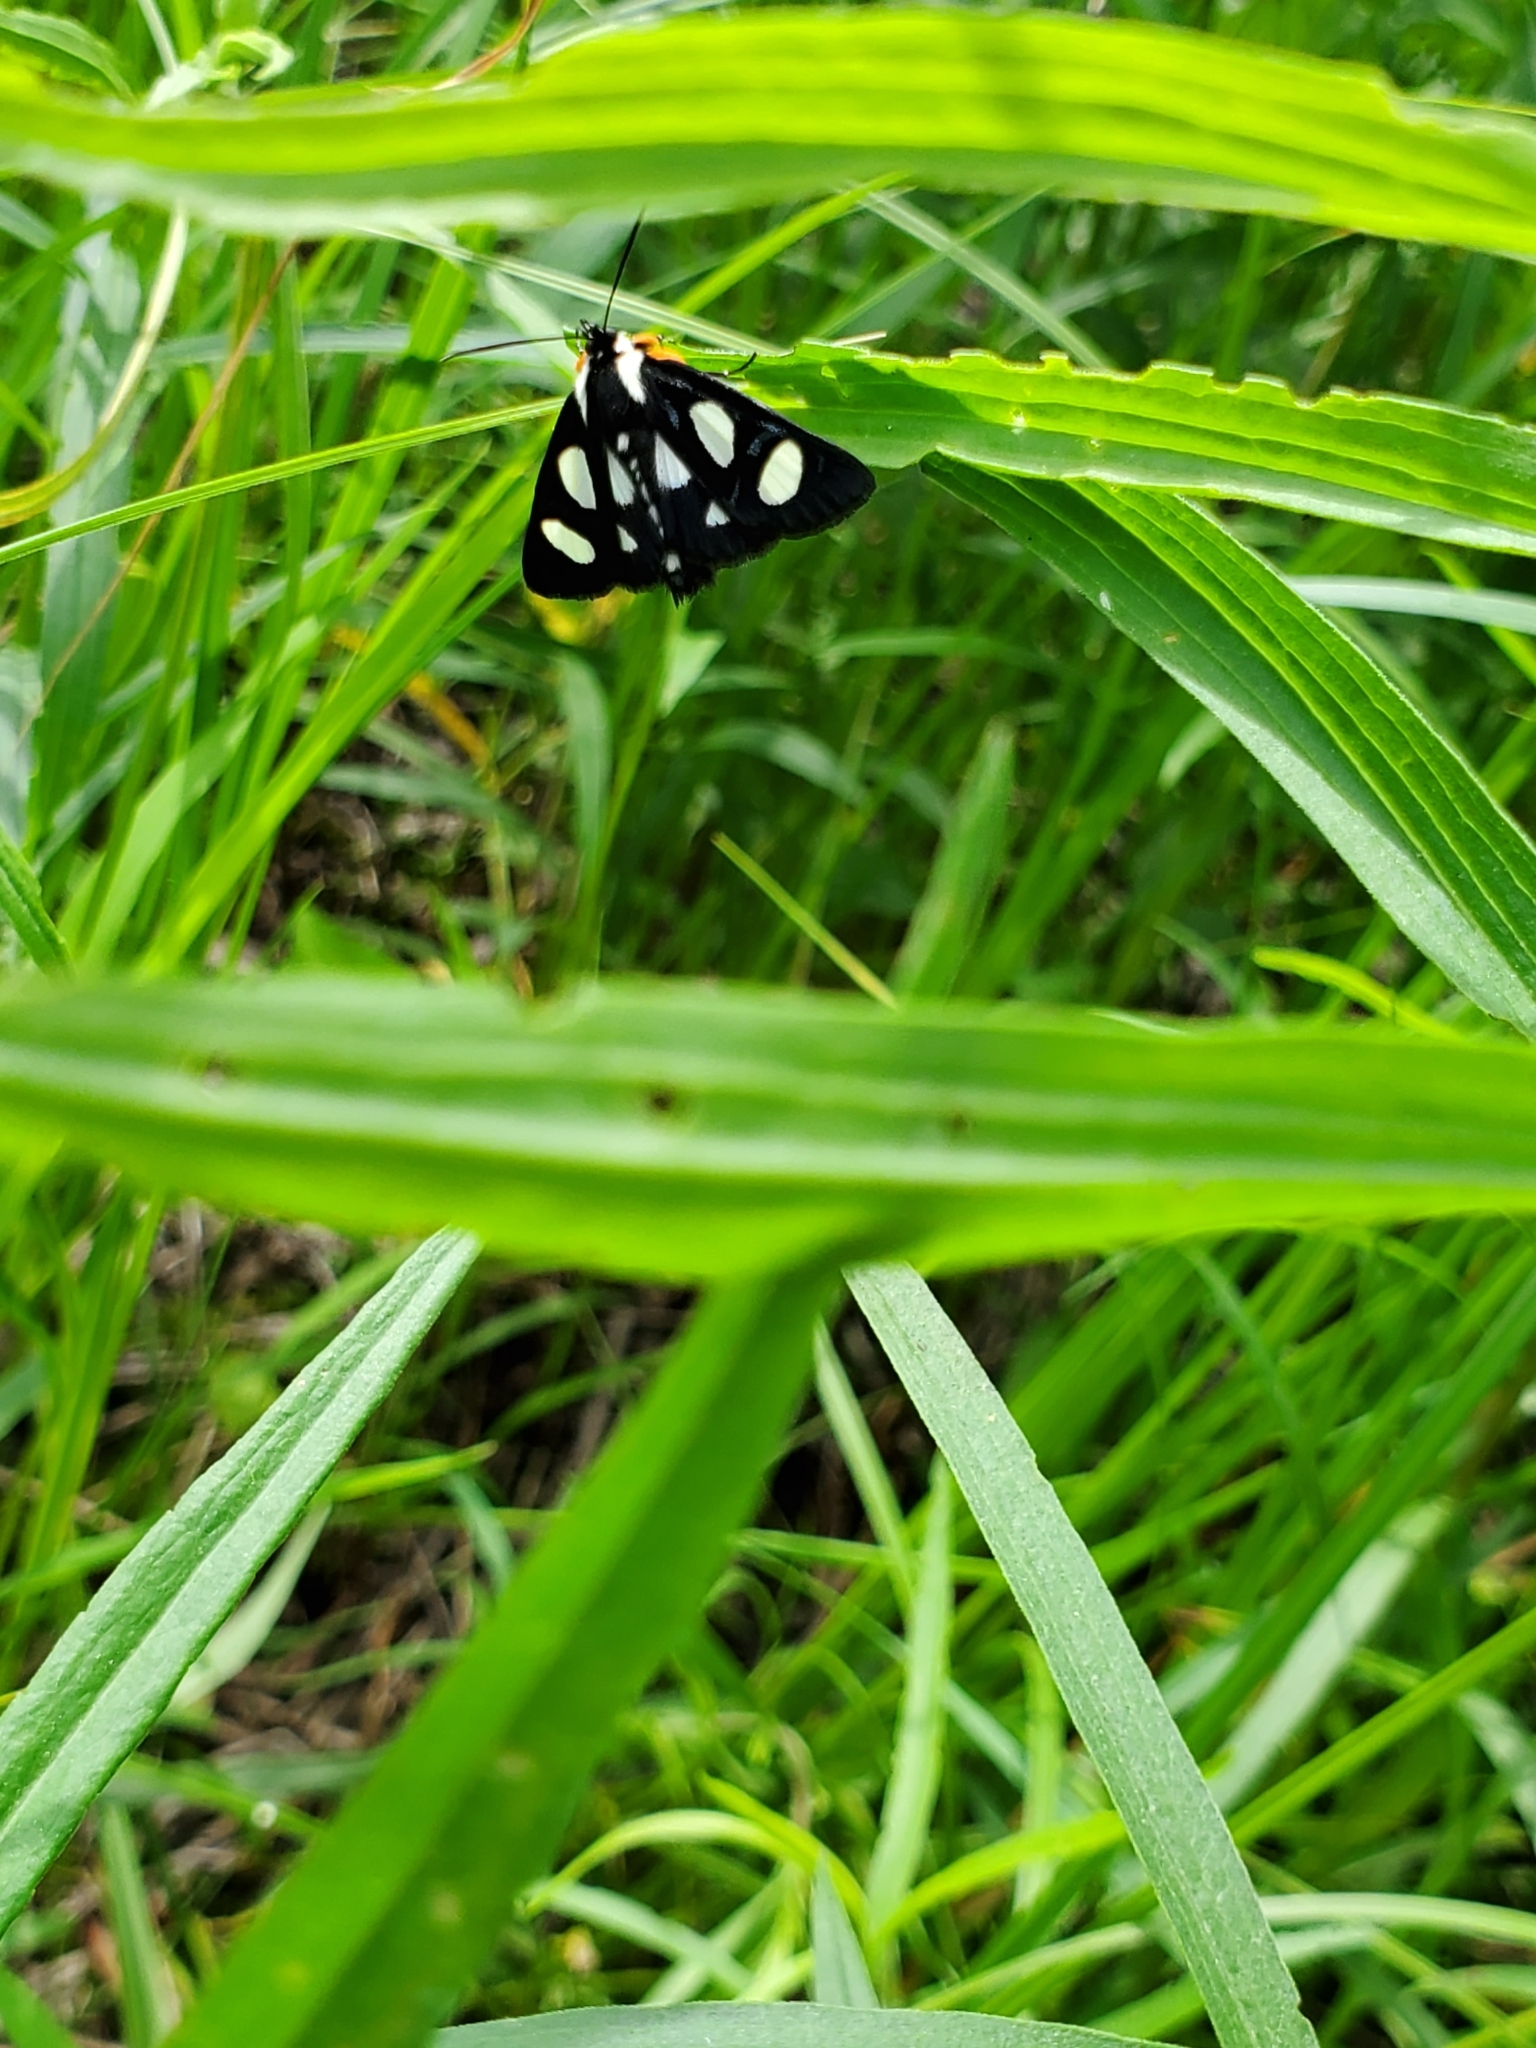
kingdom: Animalia
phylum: Arthropoda
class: Insecta
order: Lepidoptera
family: Noctuidae
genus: Alypia
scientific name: Alypia octomaculata
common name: Eight-spotted forester
